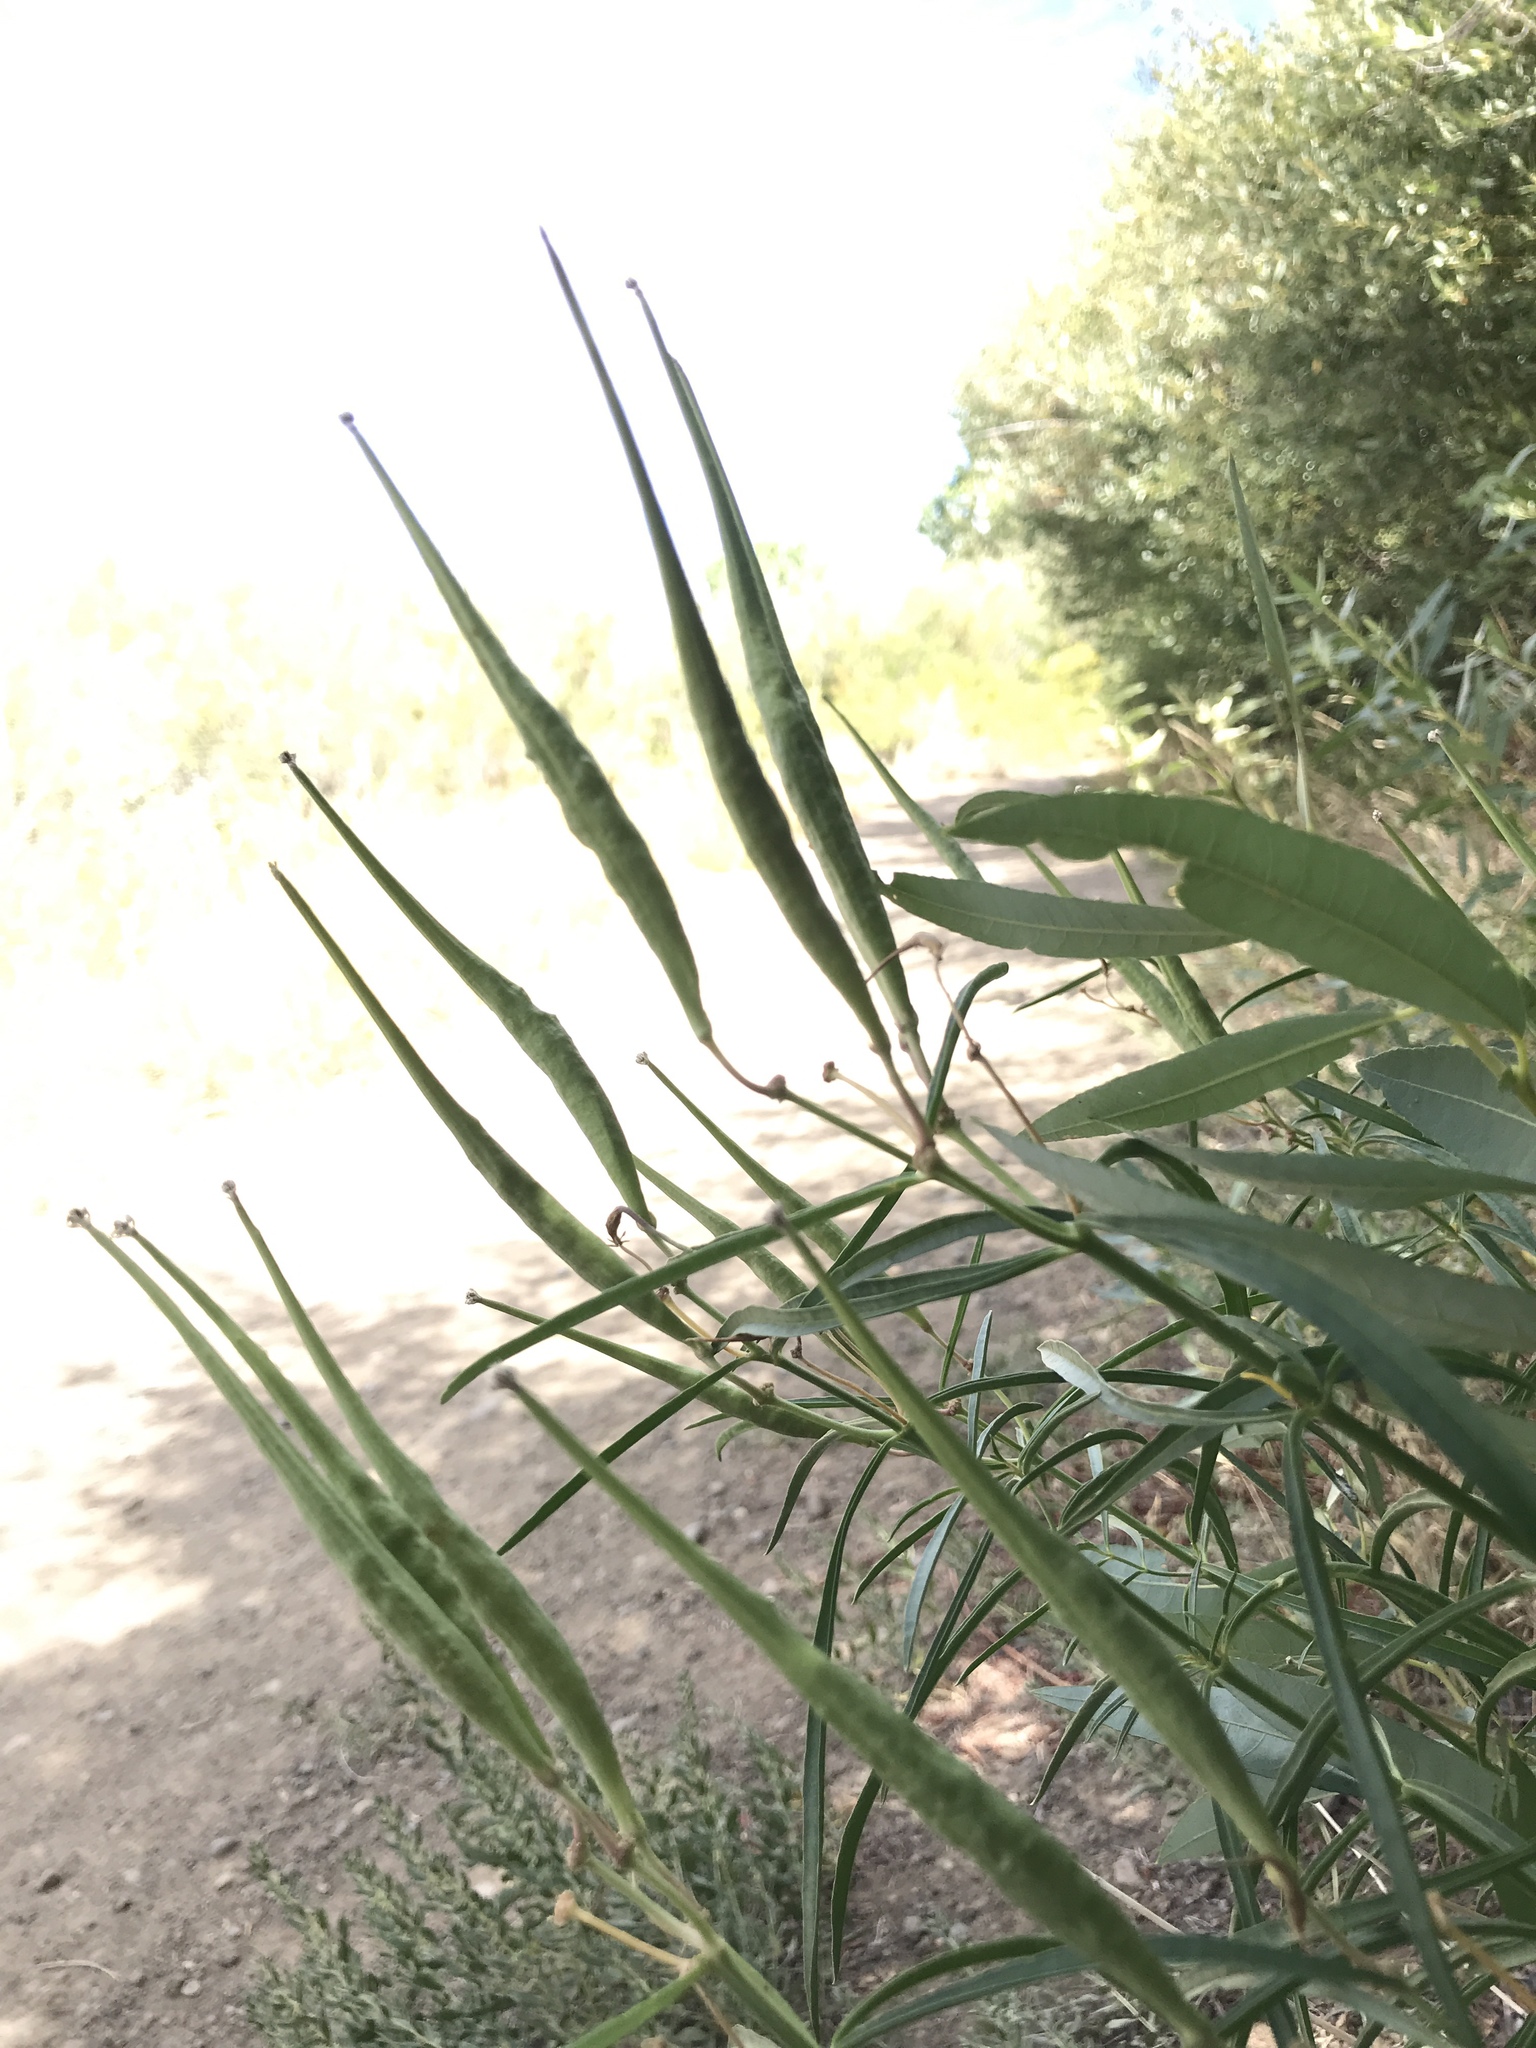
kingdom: Plantae
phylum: Tracheophyta
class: Magnoliopsida
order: Gentianales
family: Apocynaceae
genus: Asclepias
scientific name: Asclepias fascicularis
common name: Mexican milkweed
